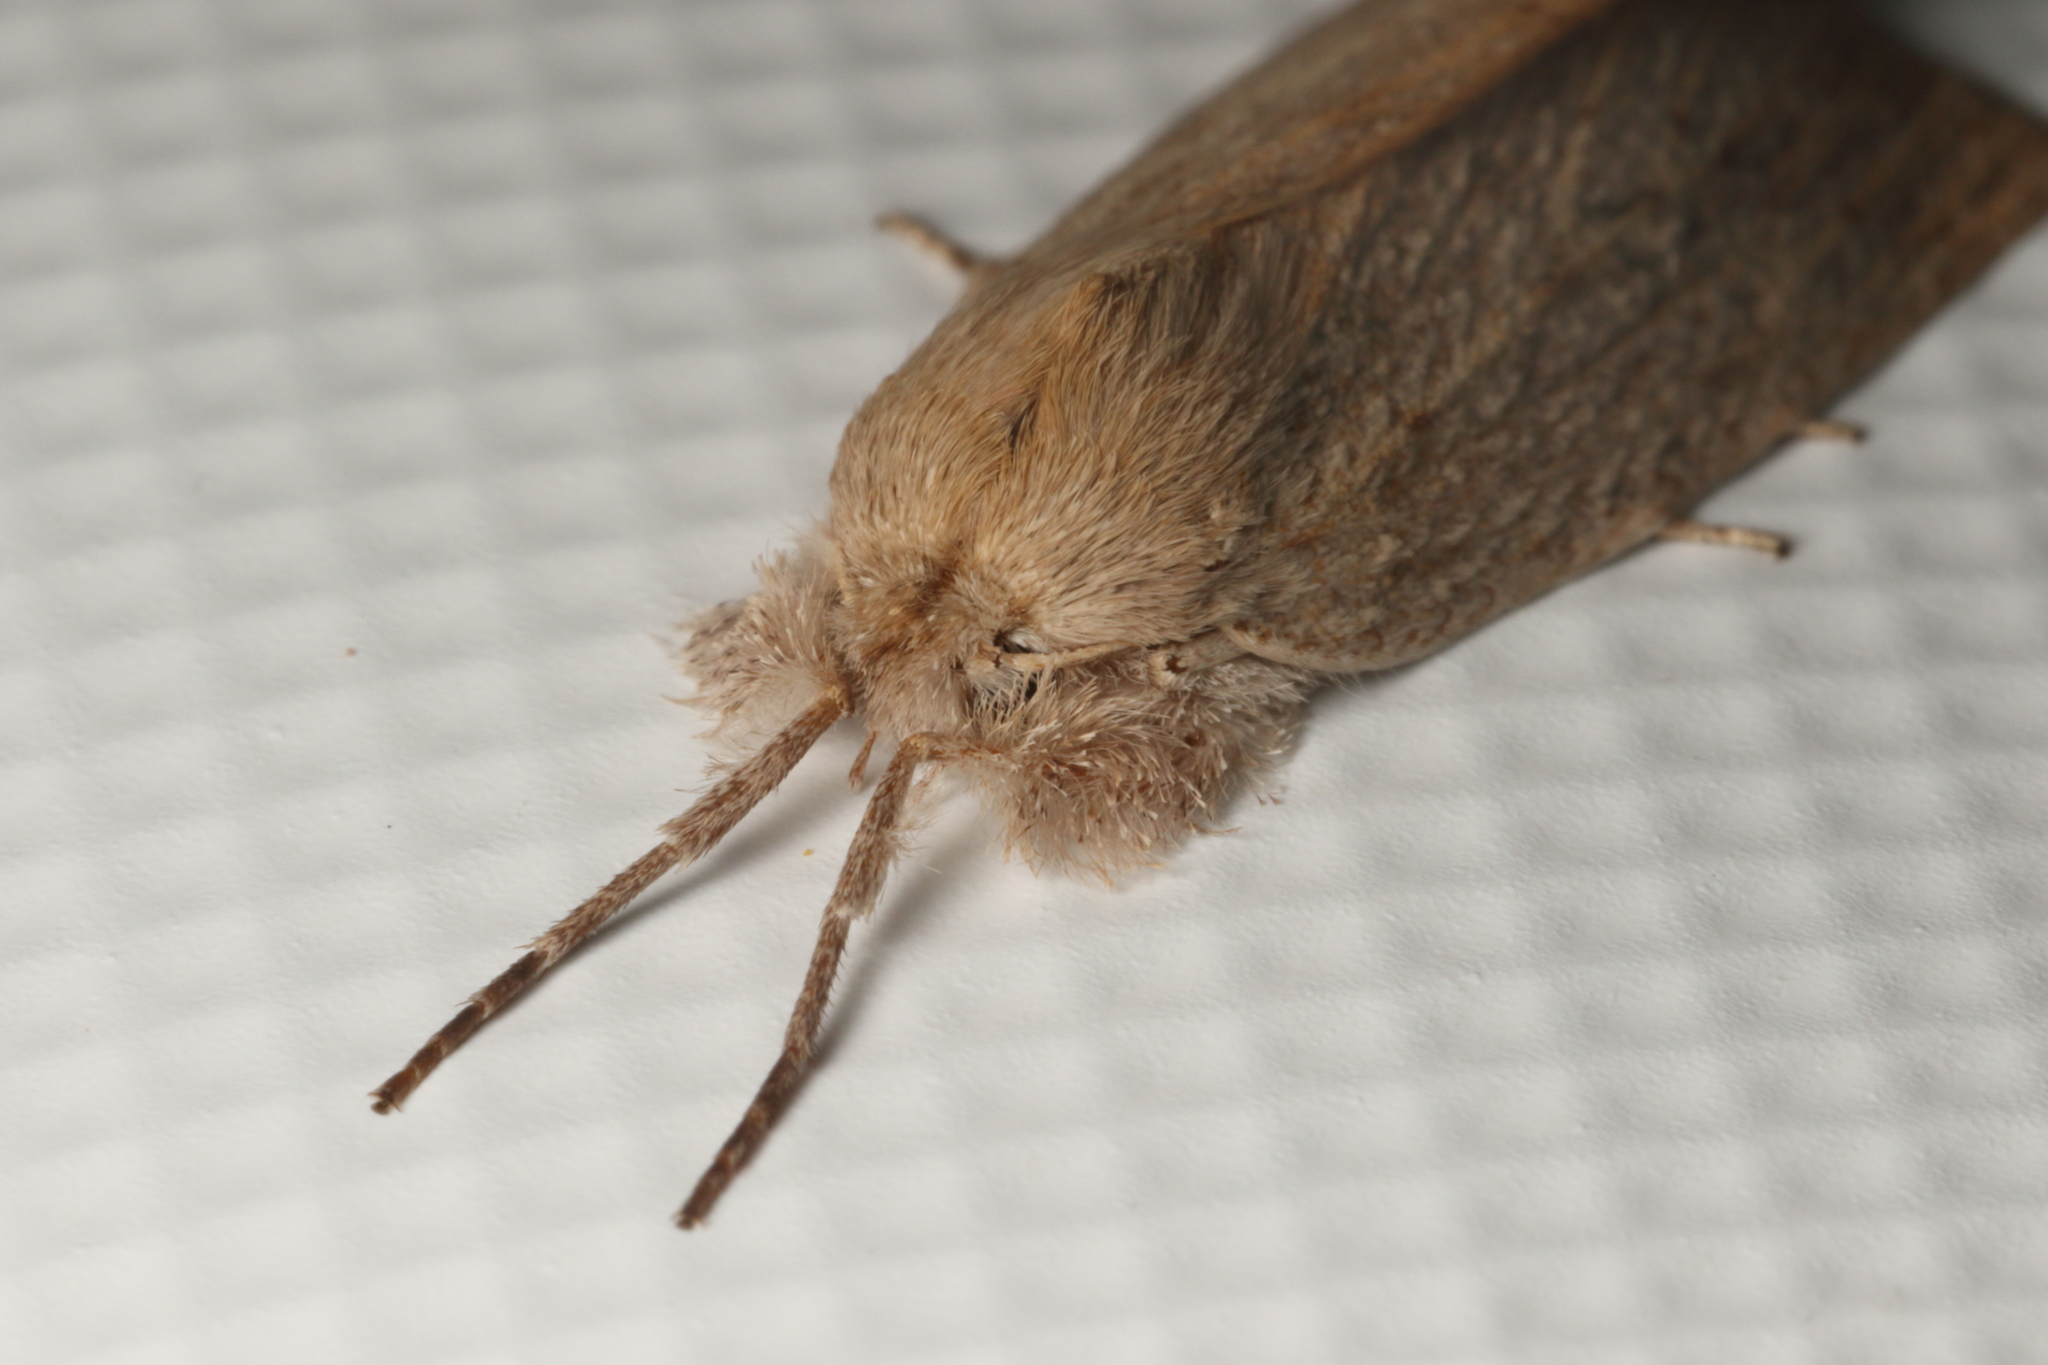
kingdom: Animalia
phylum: Arthropoda
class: Insecta
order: Lepidoptera
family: Geometridae
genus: Declana
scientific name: Declana leptomera
